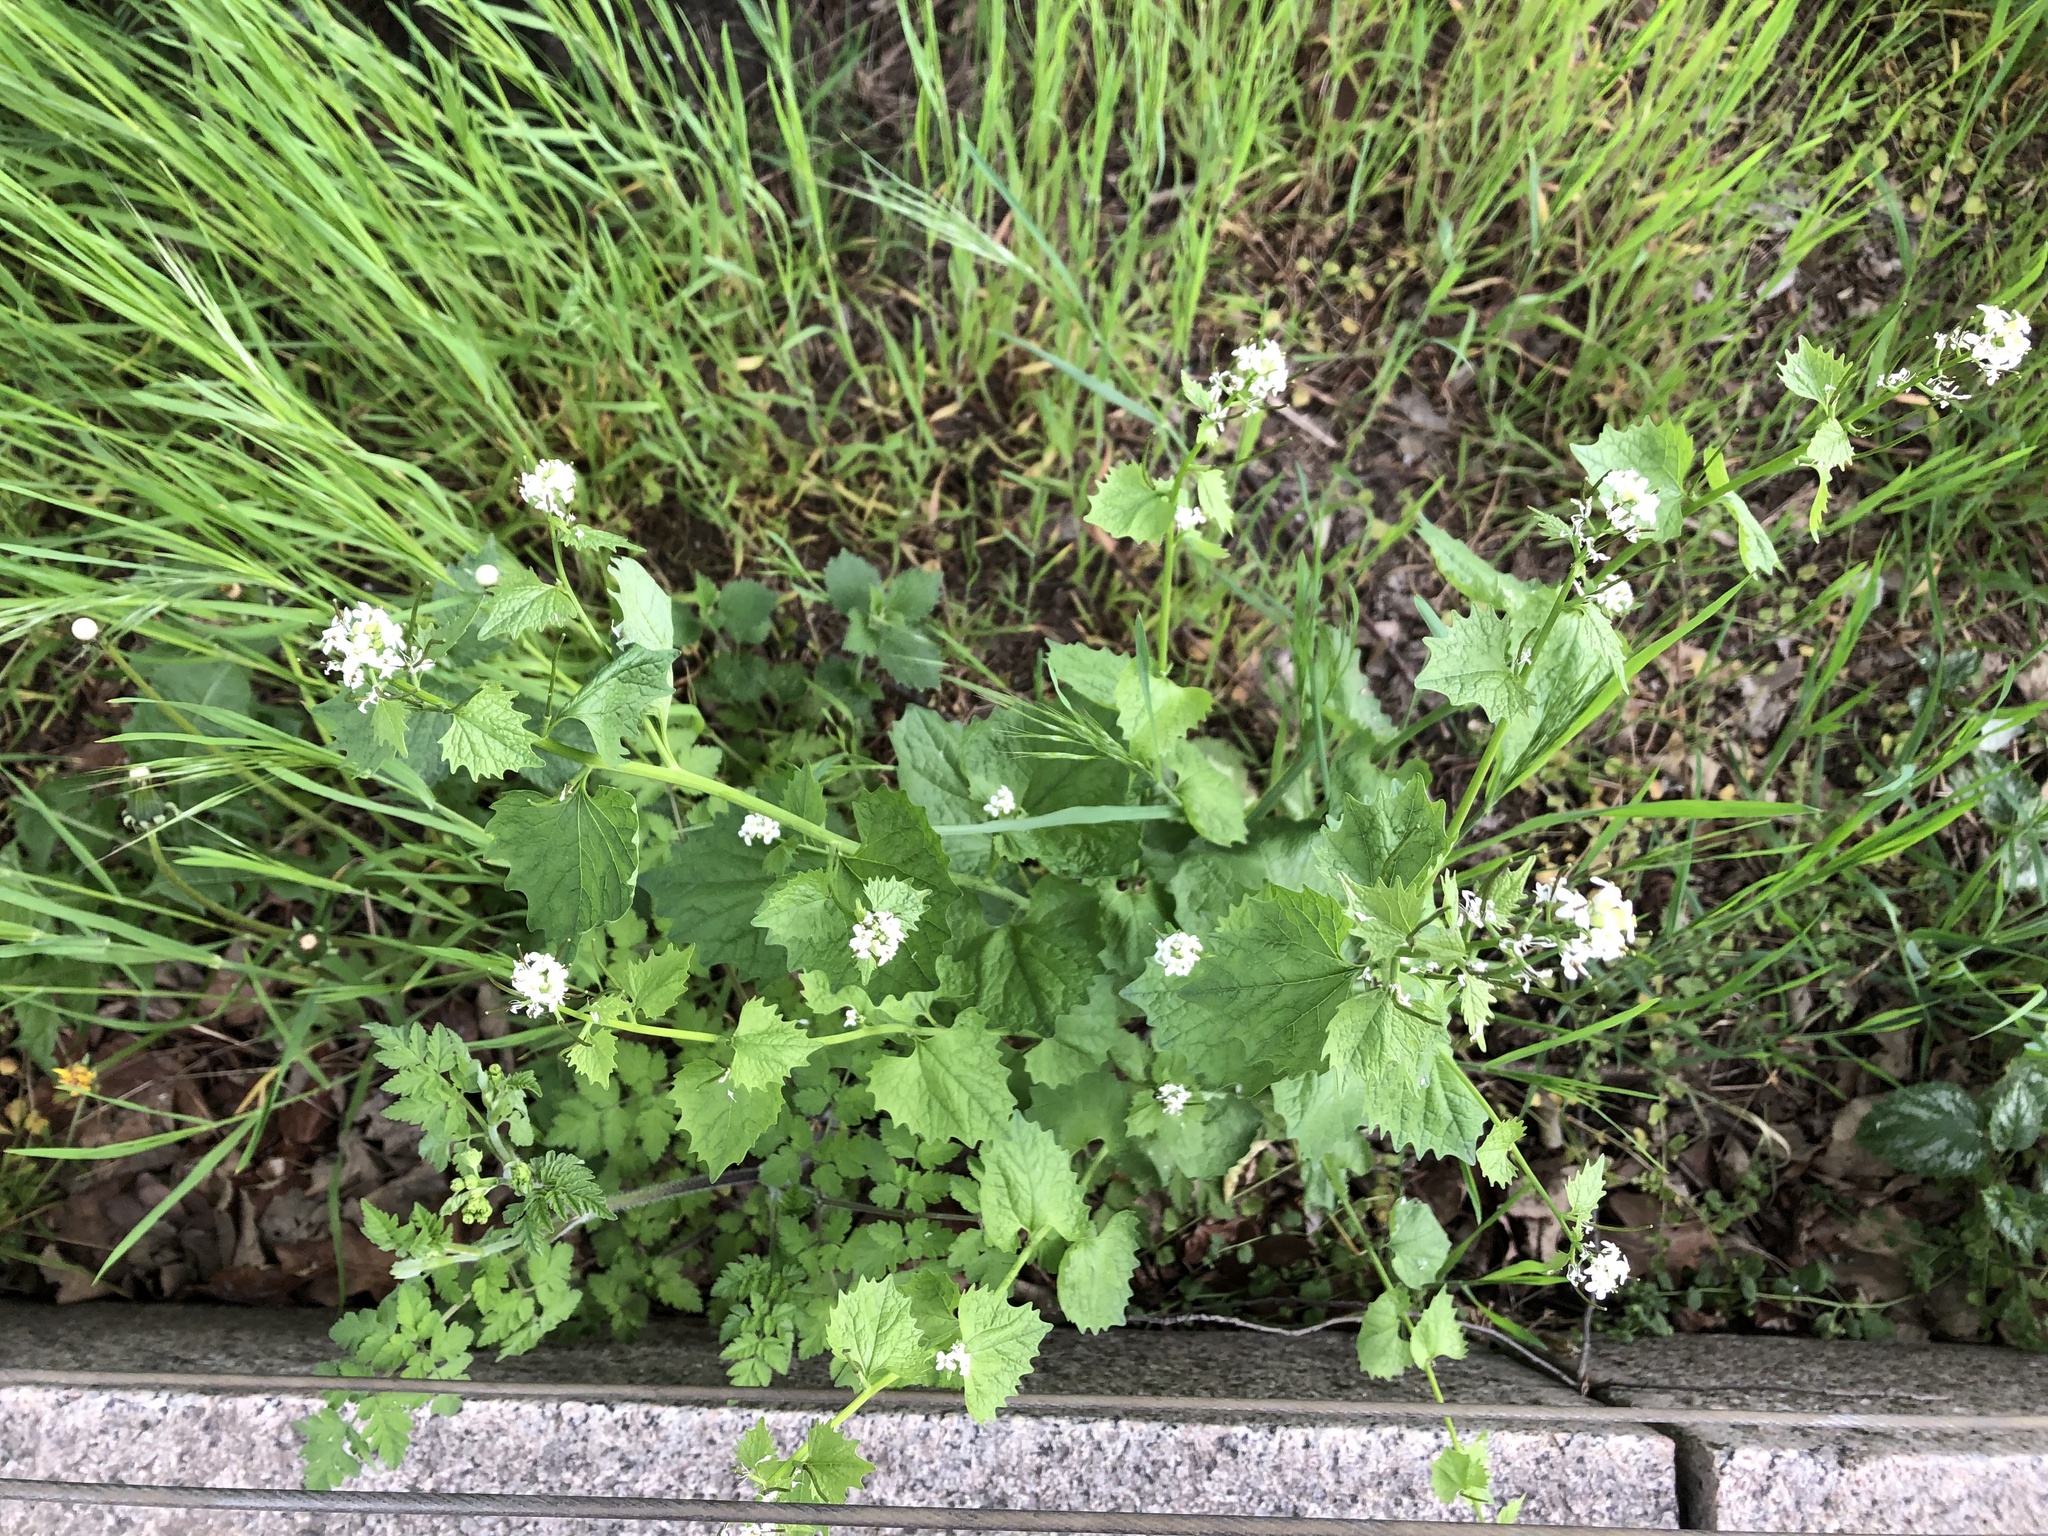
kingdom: Plantae
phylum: Tracheophyta
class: Magnoliopsida
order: Brassicales
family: Brassicaceae
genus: Alliaria
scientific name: Alliaria petiolata
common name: Garlic mustard
